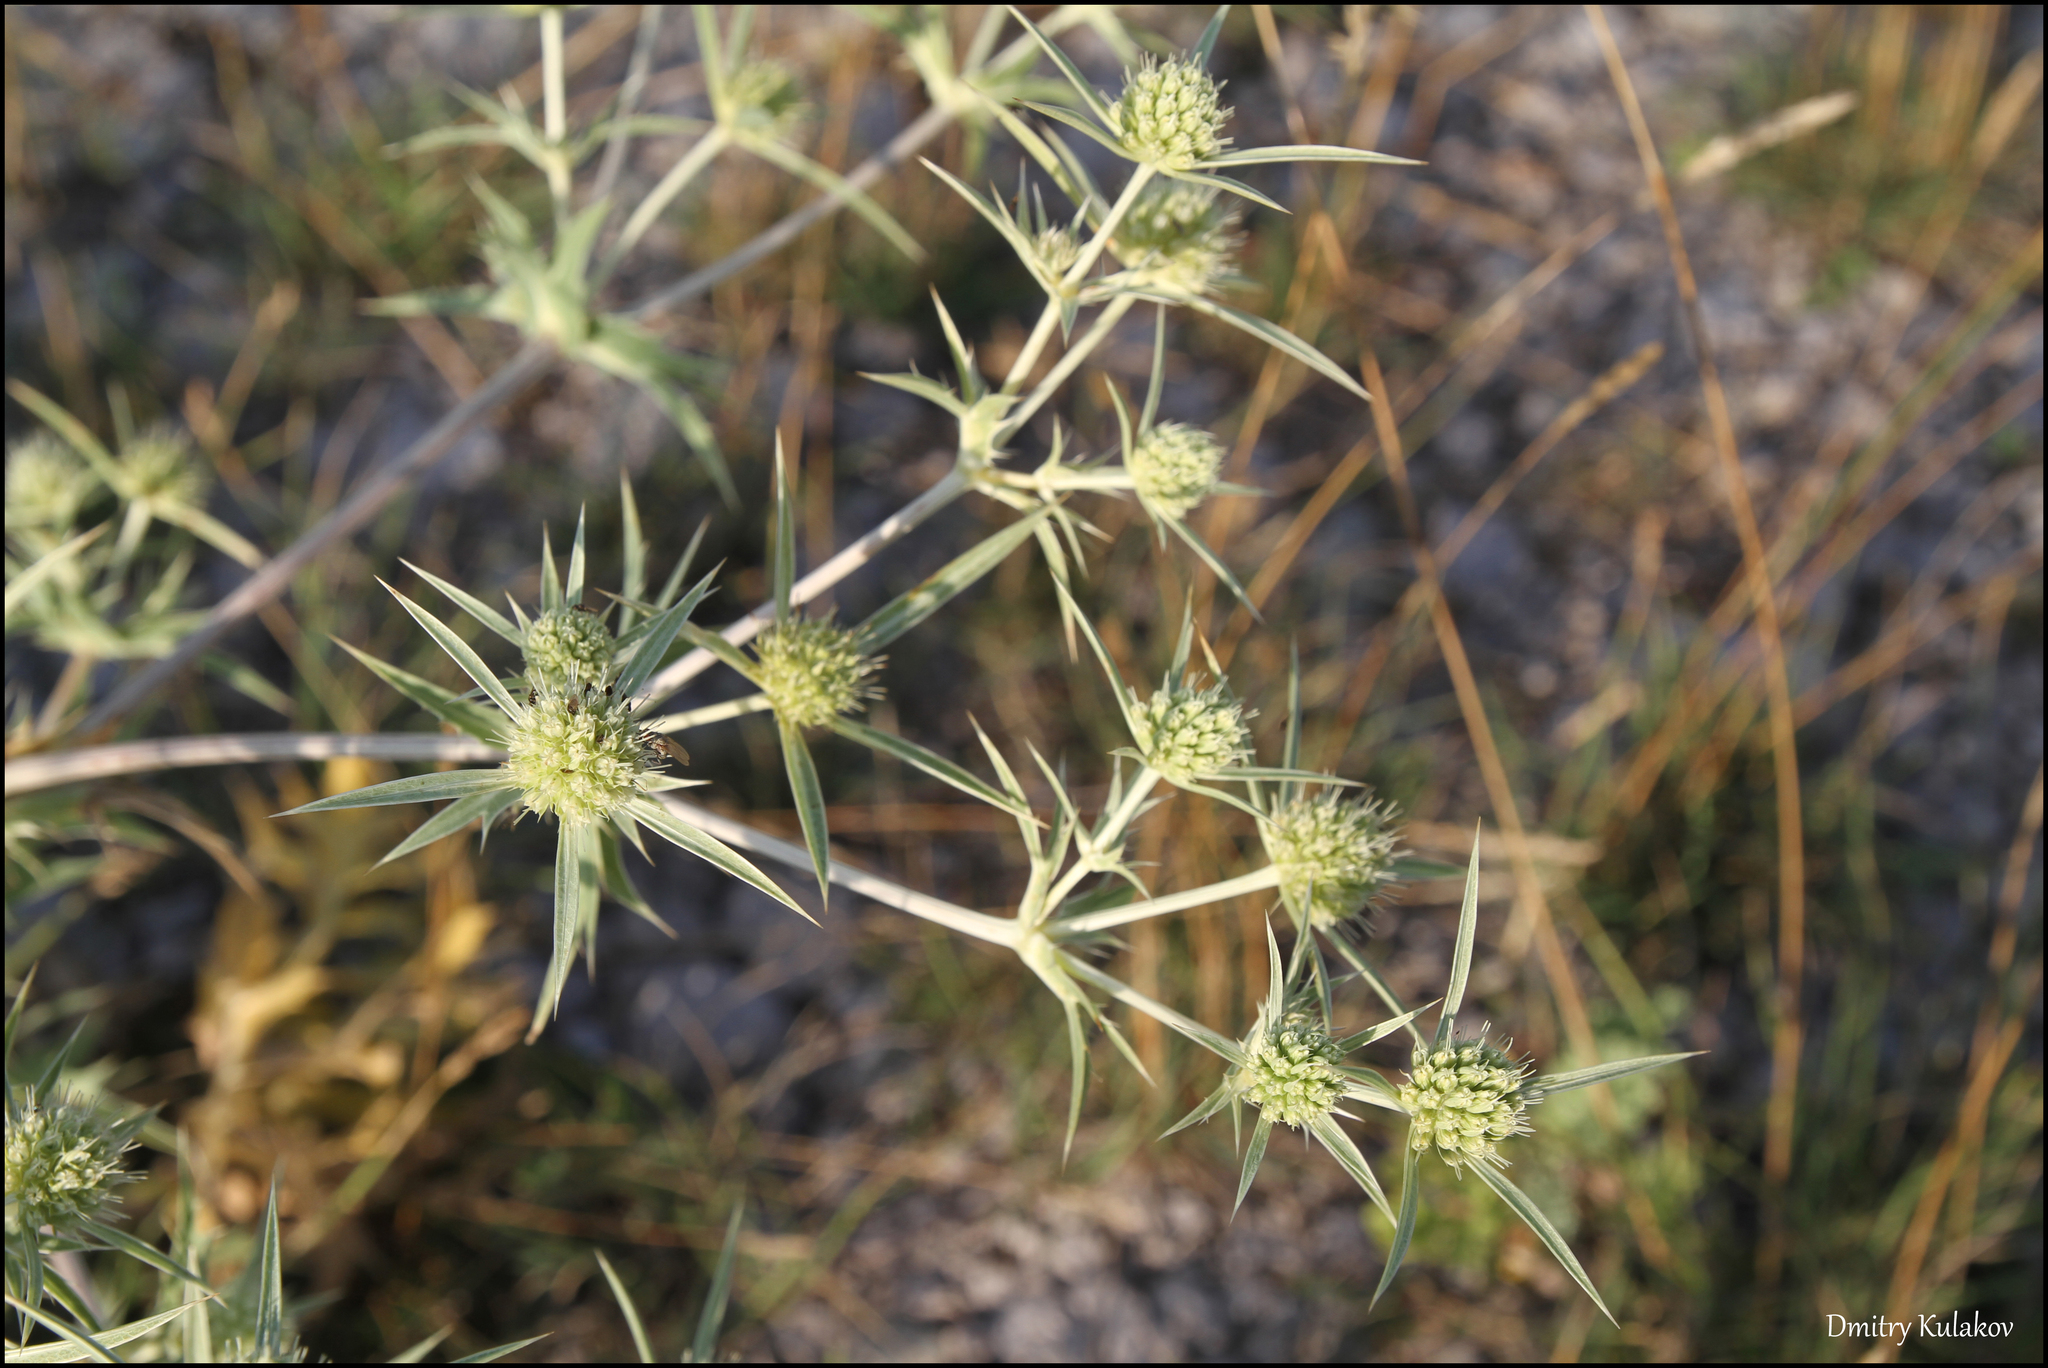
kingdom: Plantae
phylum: Tracheophyta
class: Magnoliopsida
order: Apiales
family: Apiaceae
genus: Eryngium
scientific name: Eryngium campestre
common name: Field eryngo
